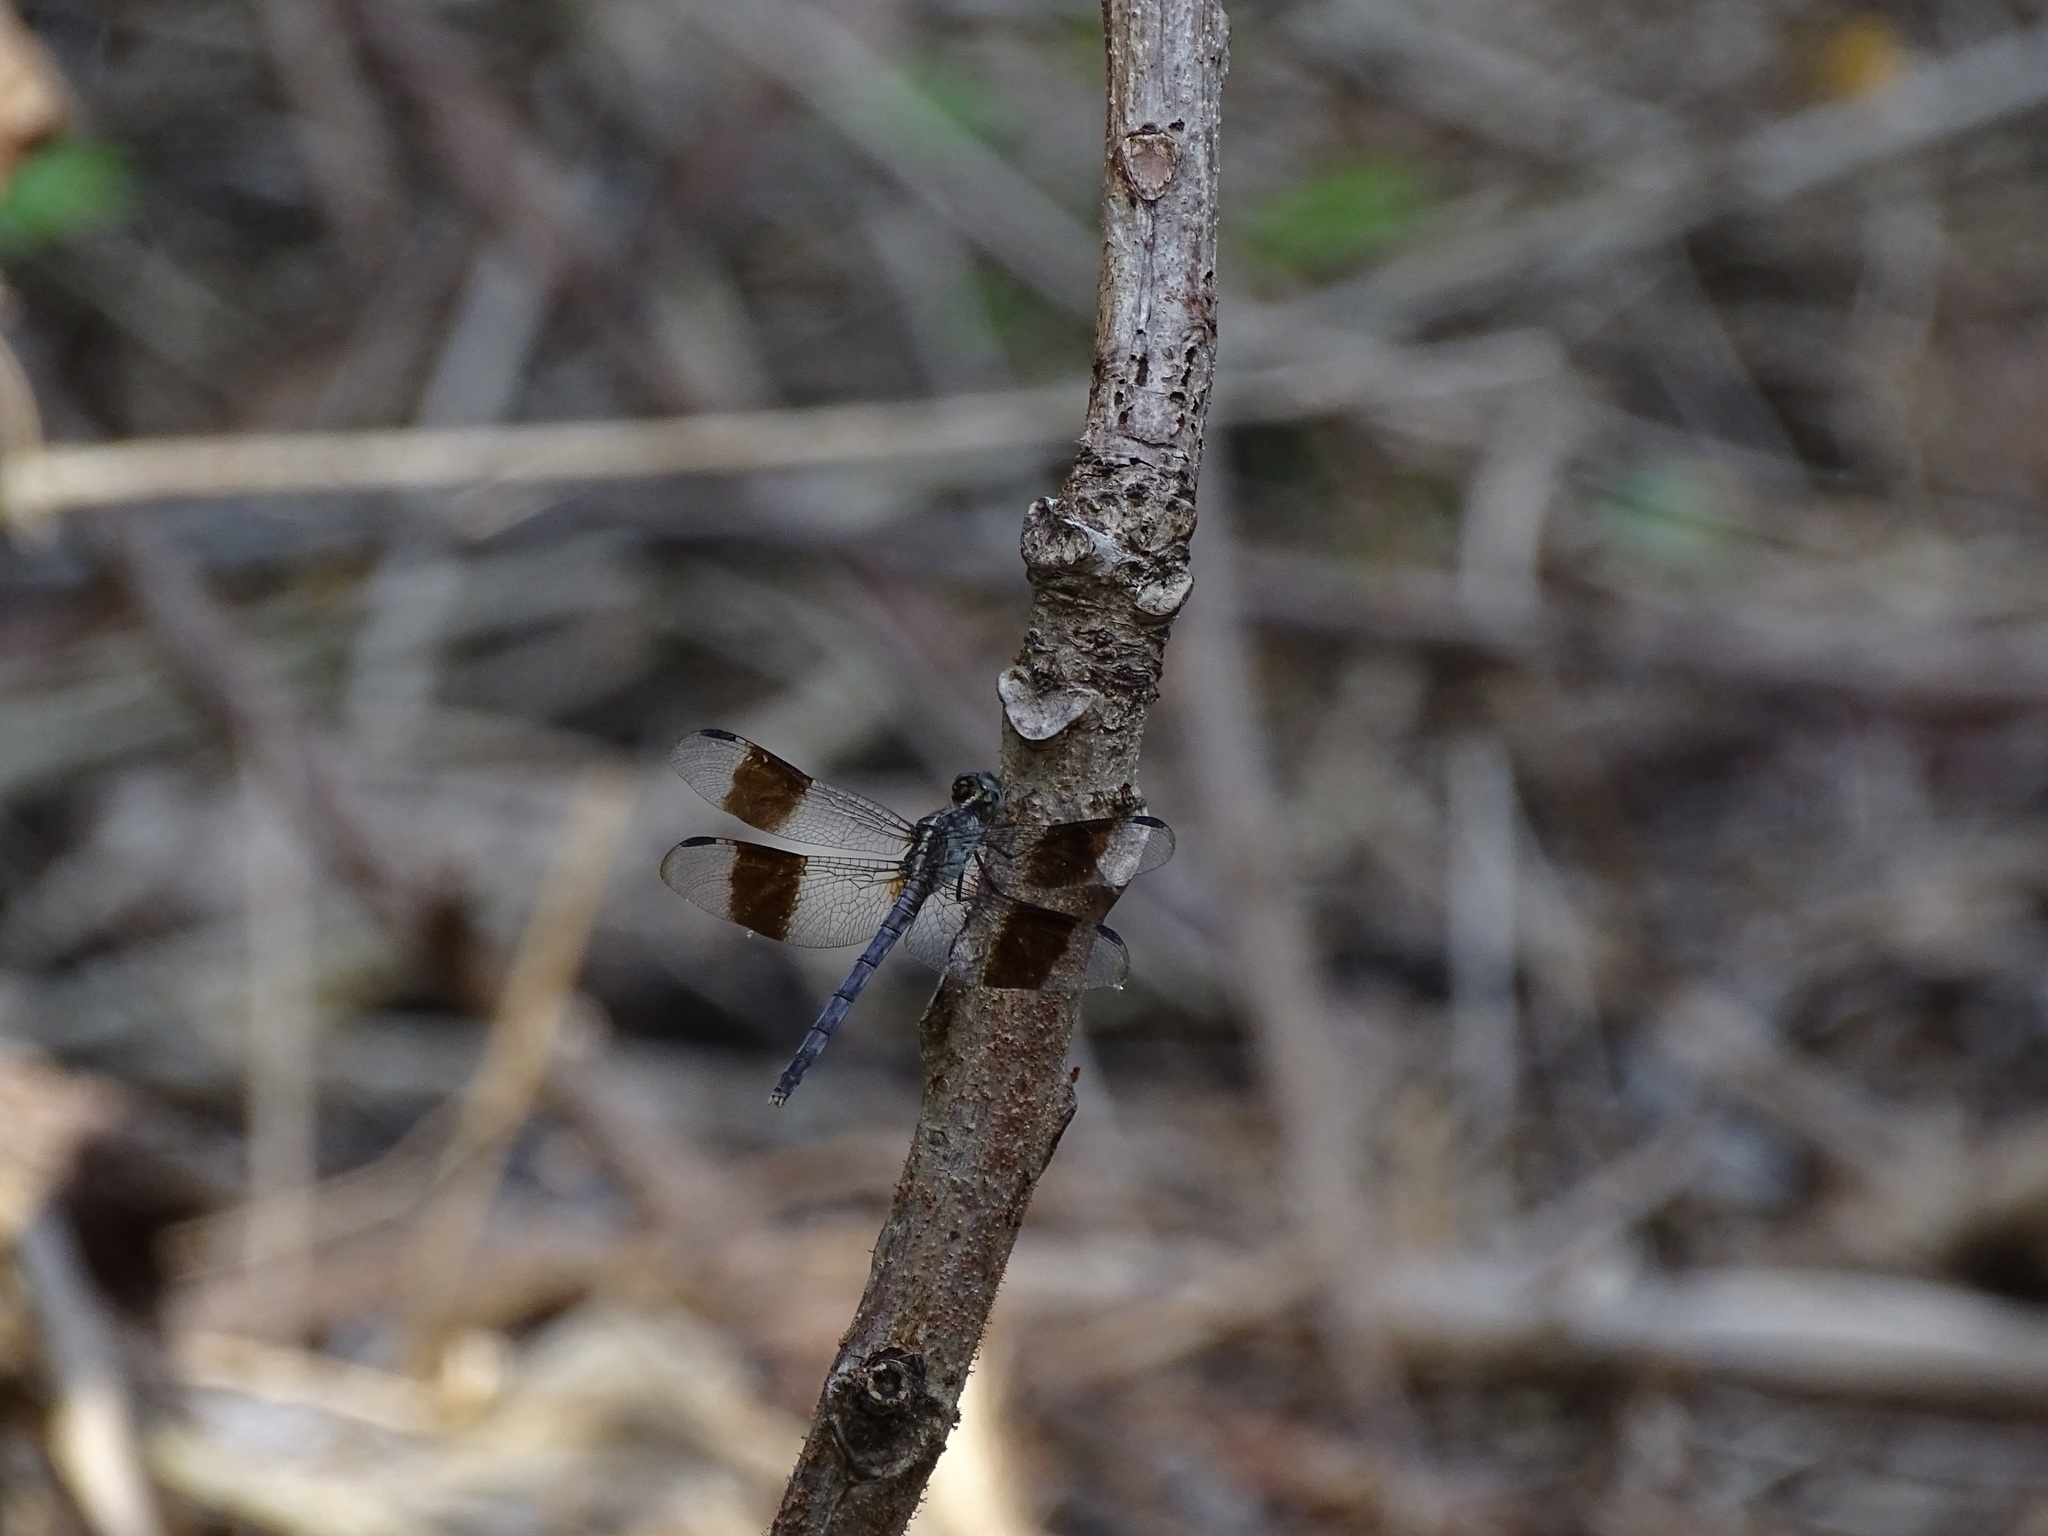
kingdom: Animalia
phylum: Arthropoda
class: Insecta
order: Odonata
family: Libellulidae
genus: Erythrodiplax
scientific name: Erythrodiplax umbrata
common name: Band-winged dragonlet
